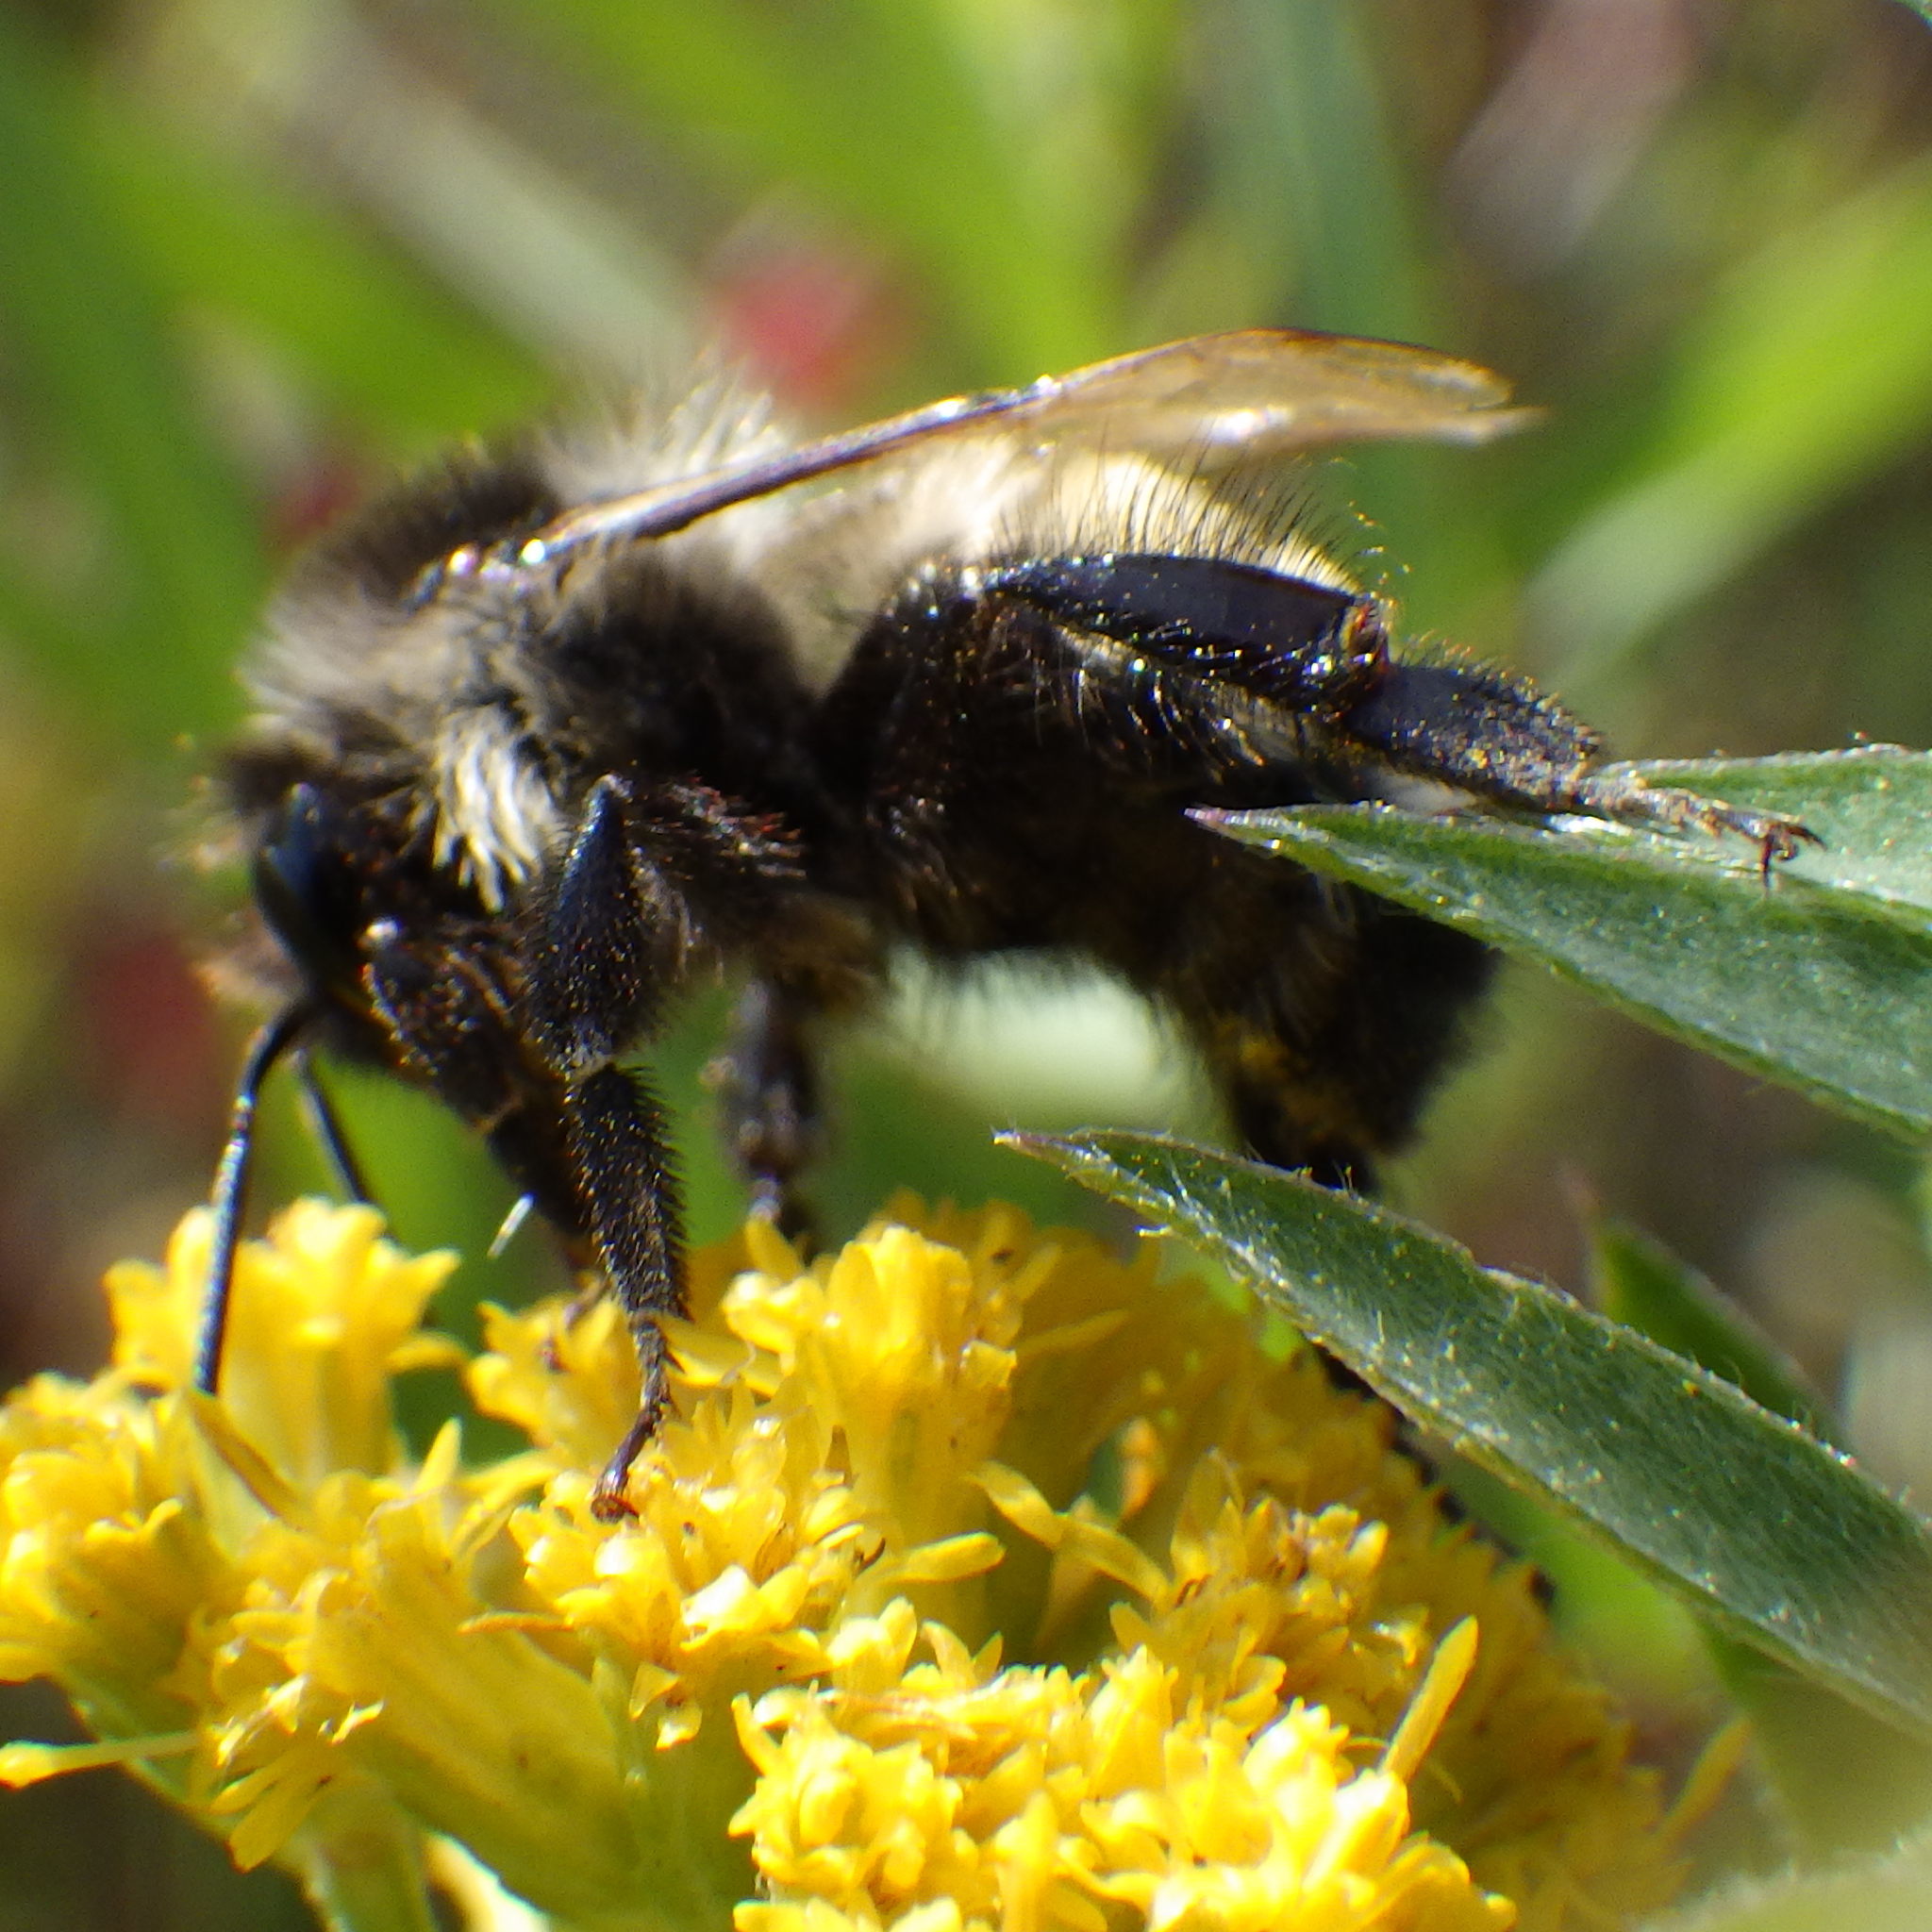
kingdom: Animalia
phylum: Arthropoda
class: Insecta
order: Hymenoptera
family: Apidae
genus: Bombus
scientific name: Bombus ternarius
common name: Tri-colored bumble bee
